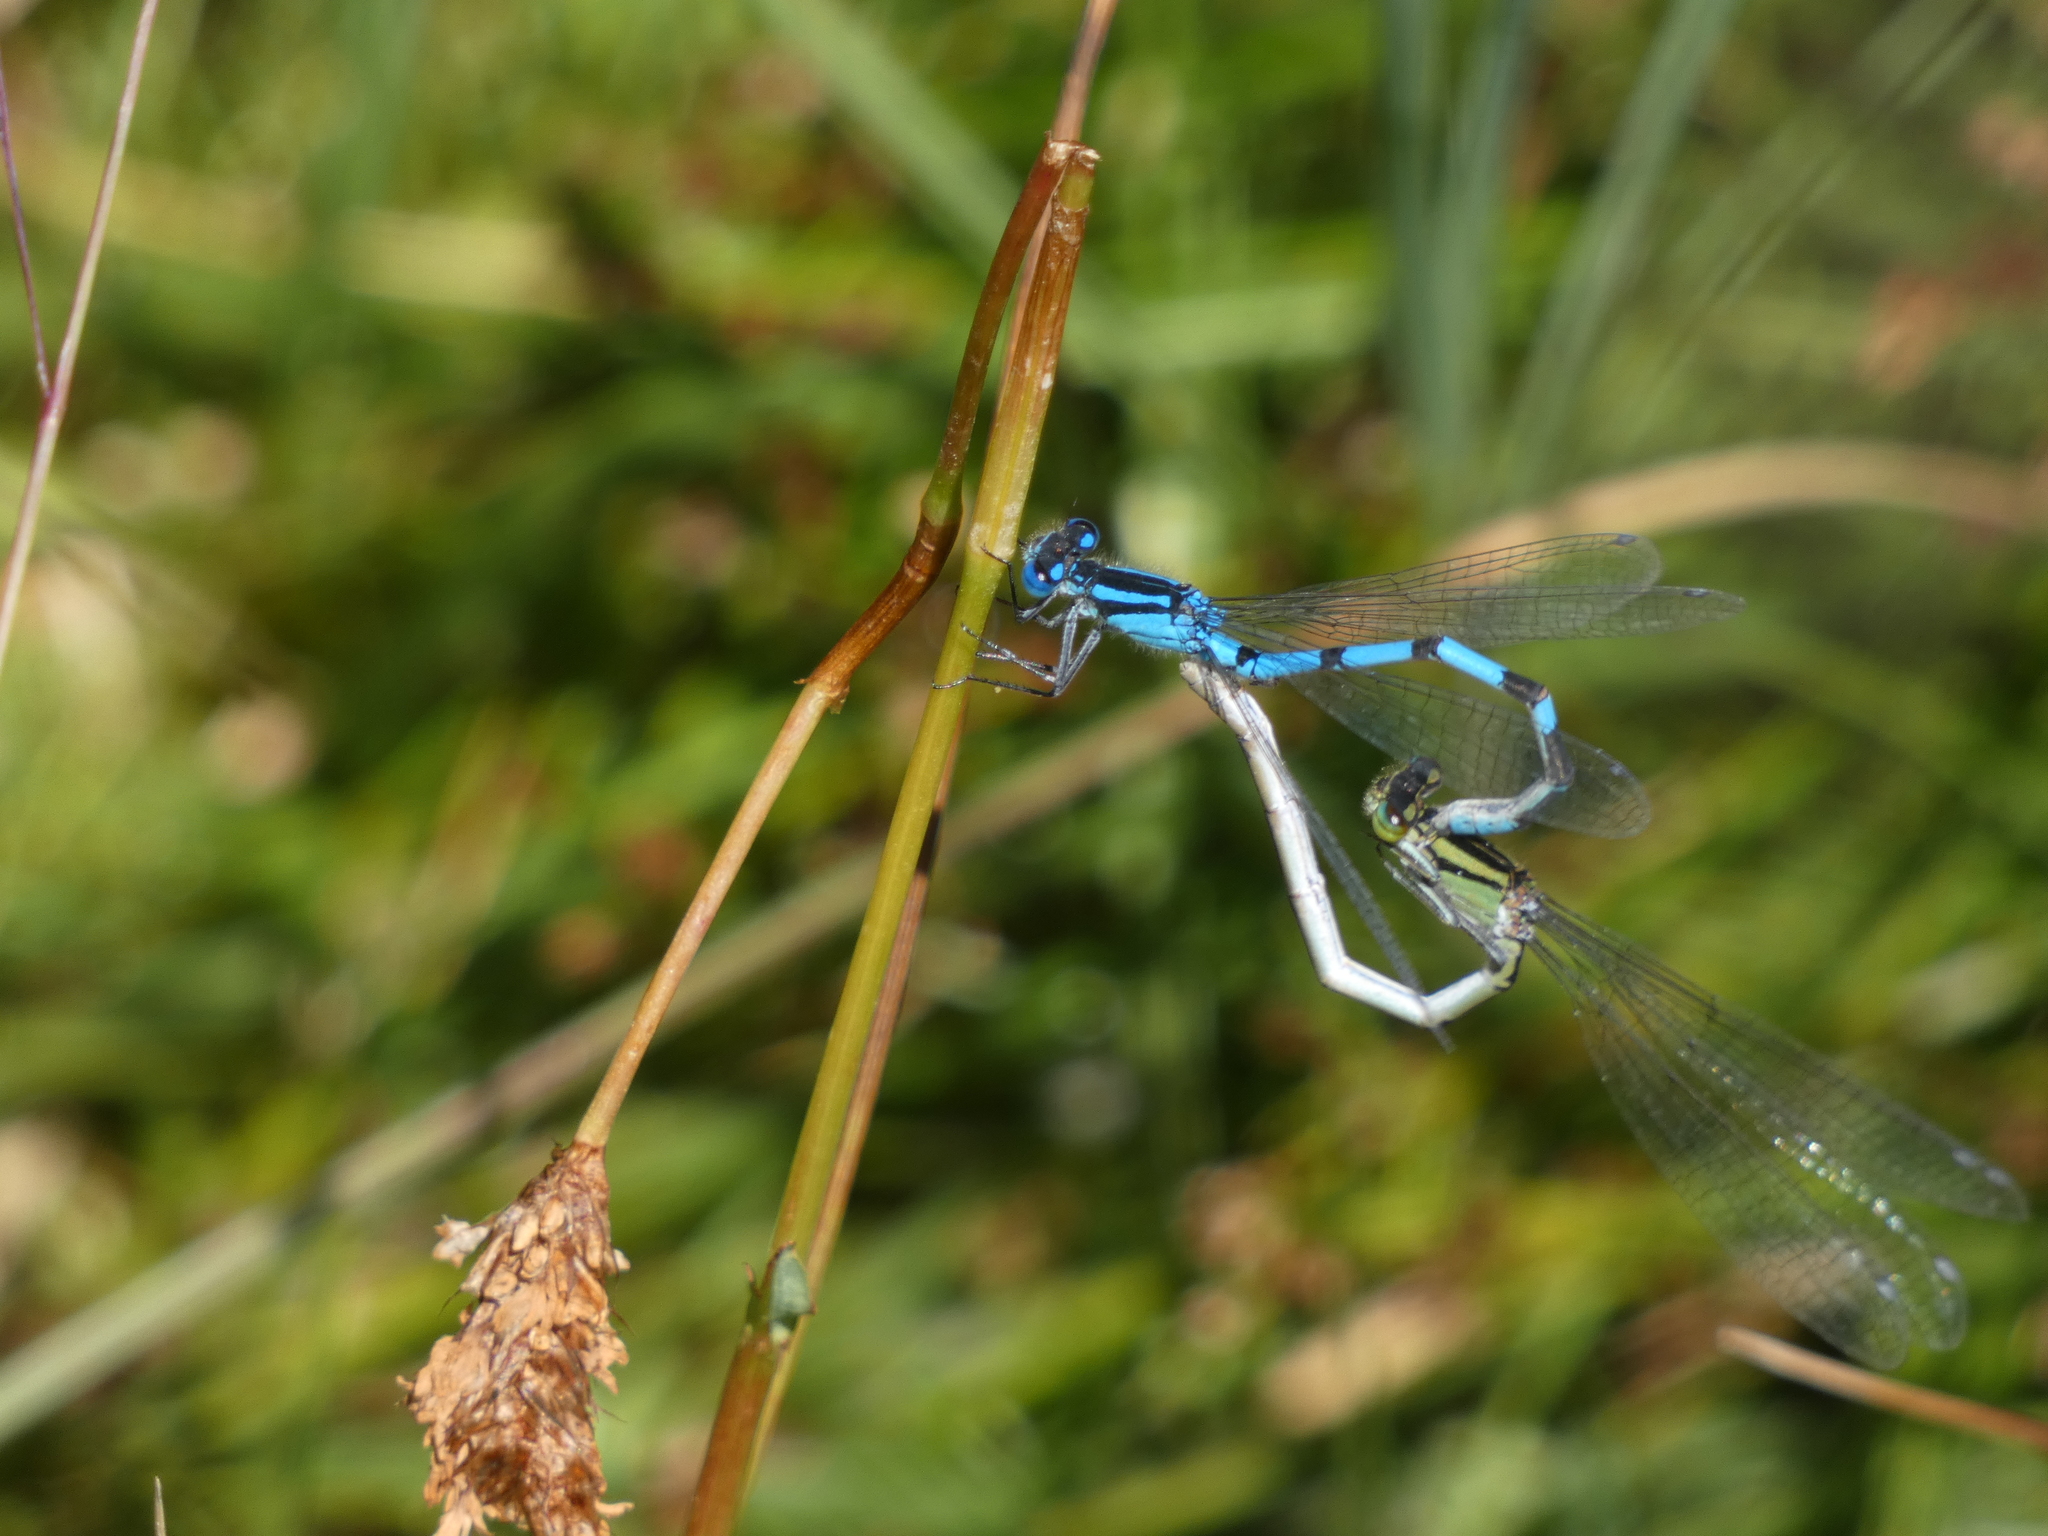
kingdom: Animalia
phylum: Arthropoda
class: Insecta
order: Odonata
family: Coenagrionidae
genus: Enallagma
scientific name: Enallagma cyathigerum
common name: Common blue damselfly
